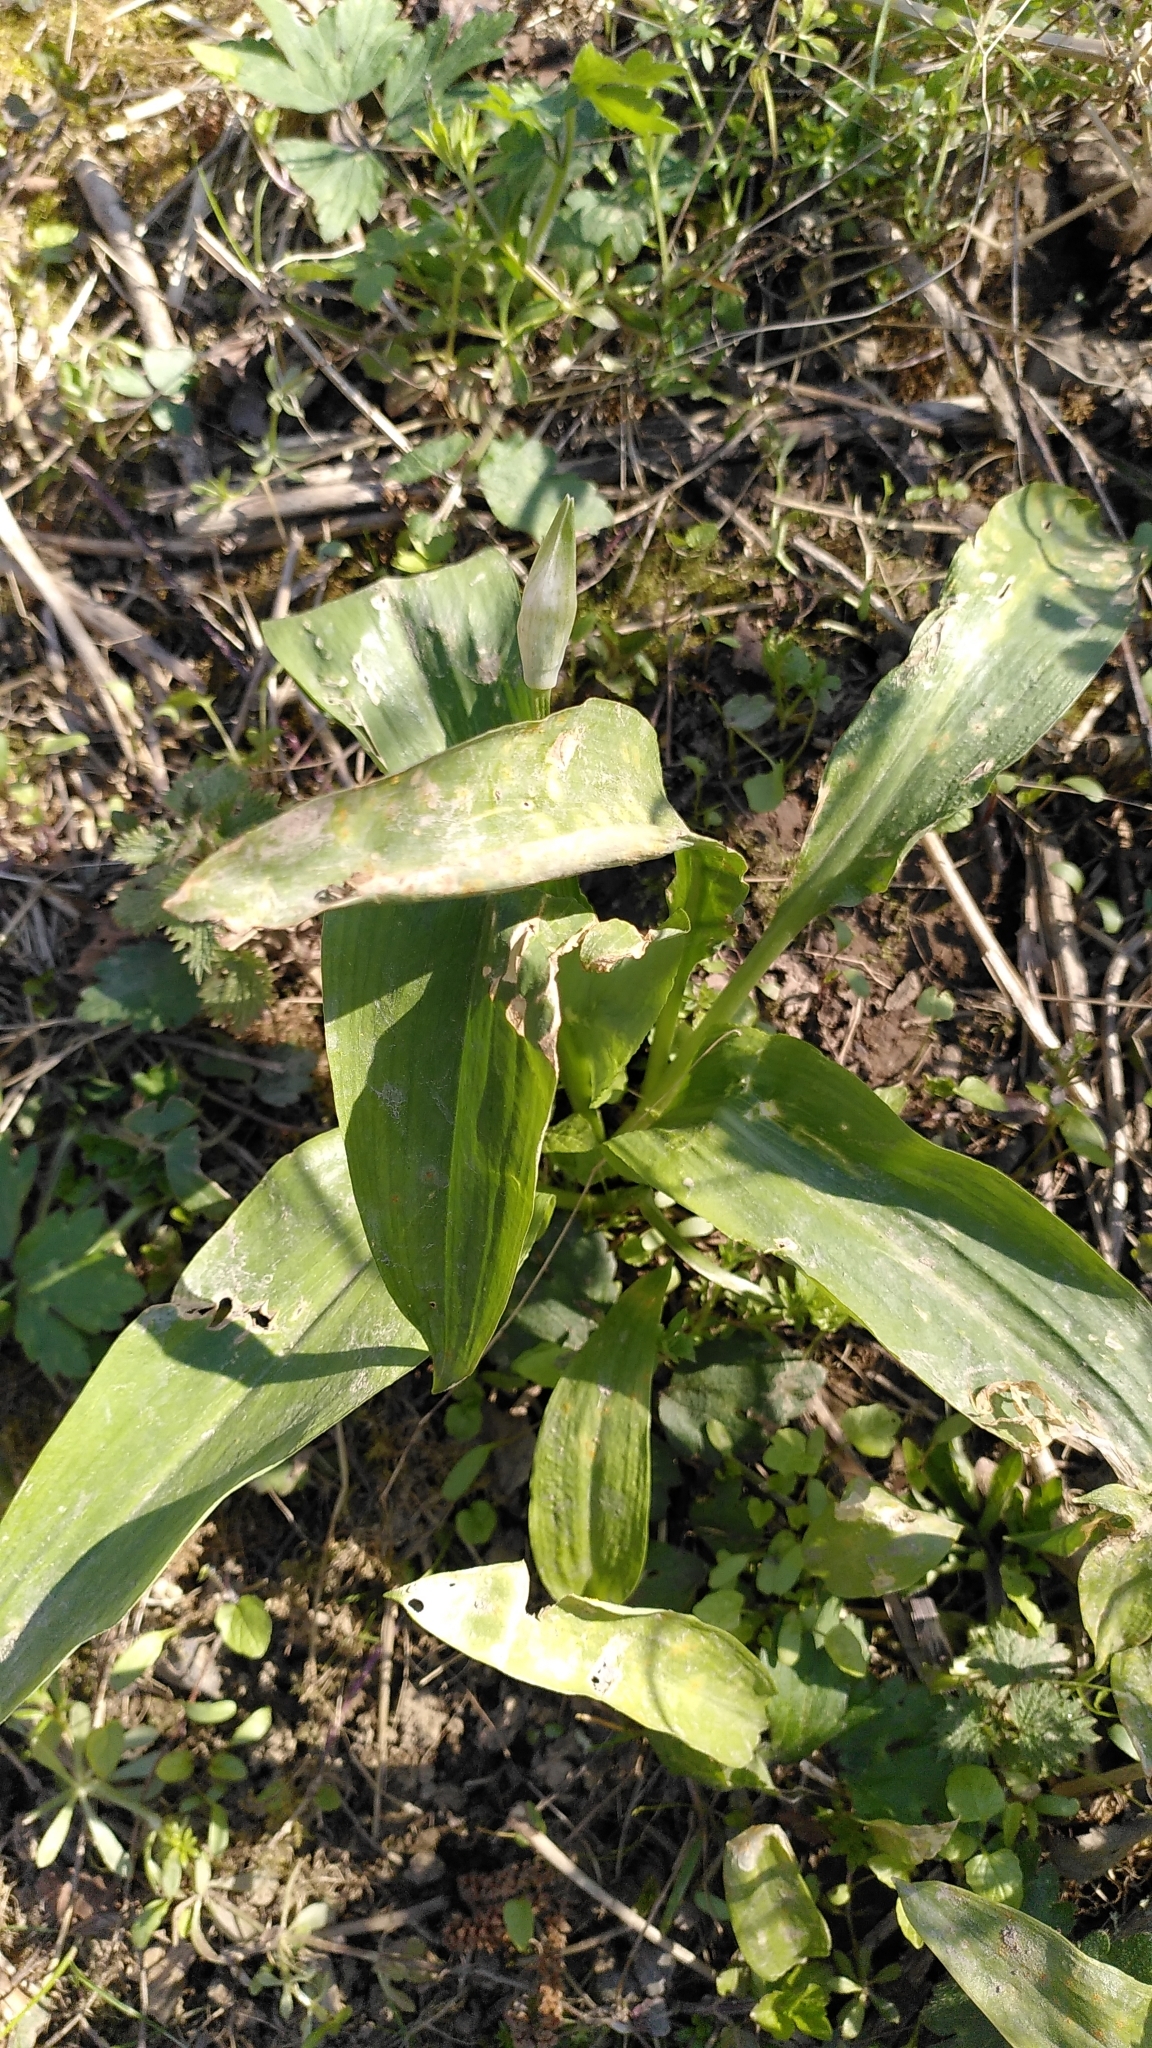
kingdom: Plantae
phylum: Tracheophyta
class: Liliopsida
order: Asparagales
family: Amaryllidaceae
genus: Allium
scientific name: Allium ursinum
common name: Ramsons
